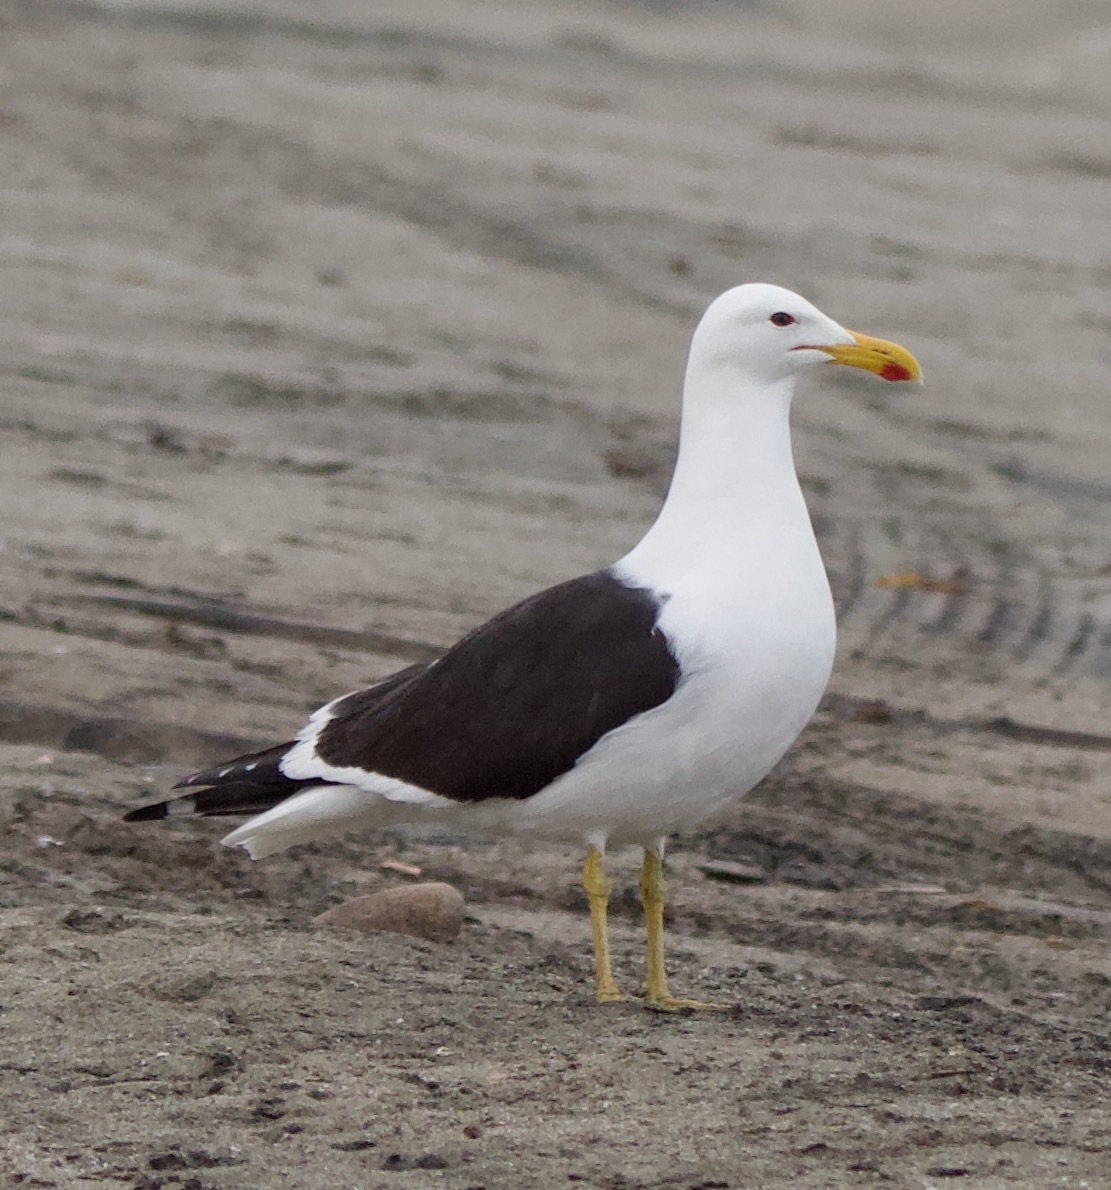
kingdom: Animalia
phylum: Chordata
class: Aves
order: Charadriiformes
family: Laridae
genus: Larus
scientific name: Larus dominicanus
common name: Kelp gull
